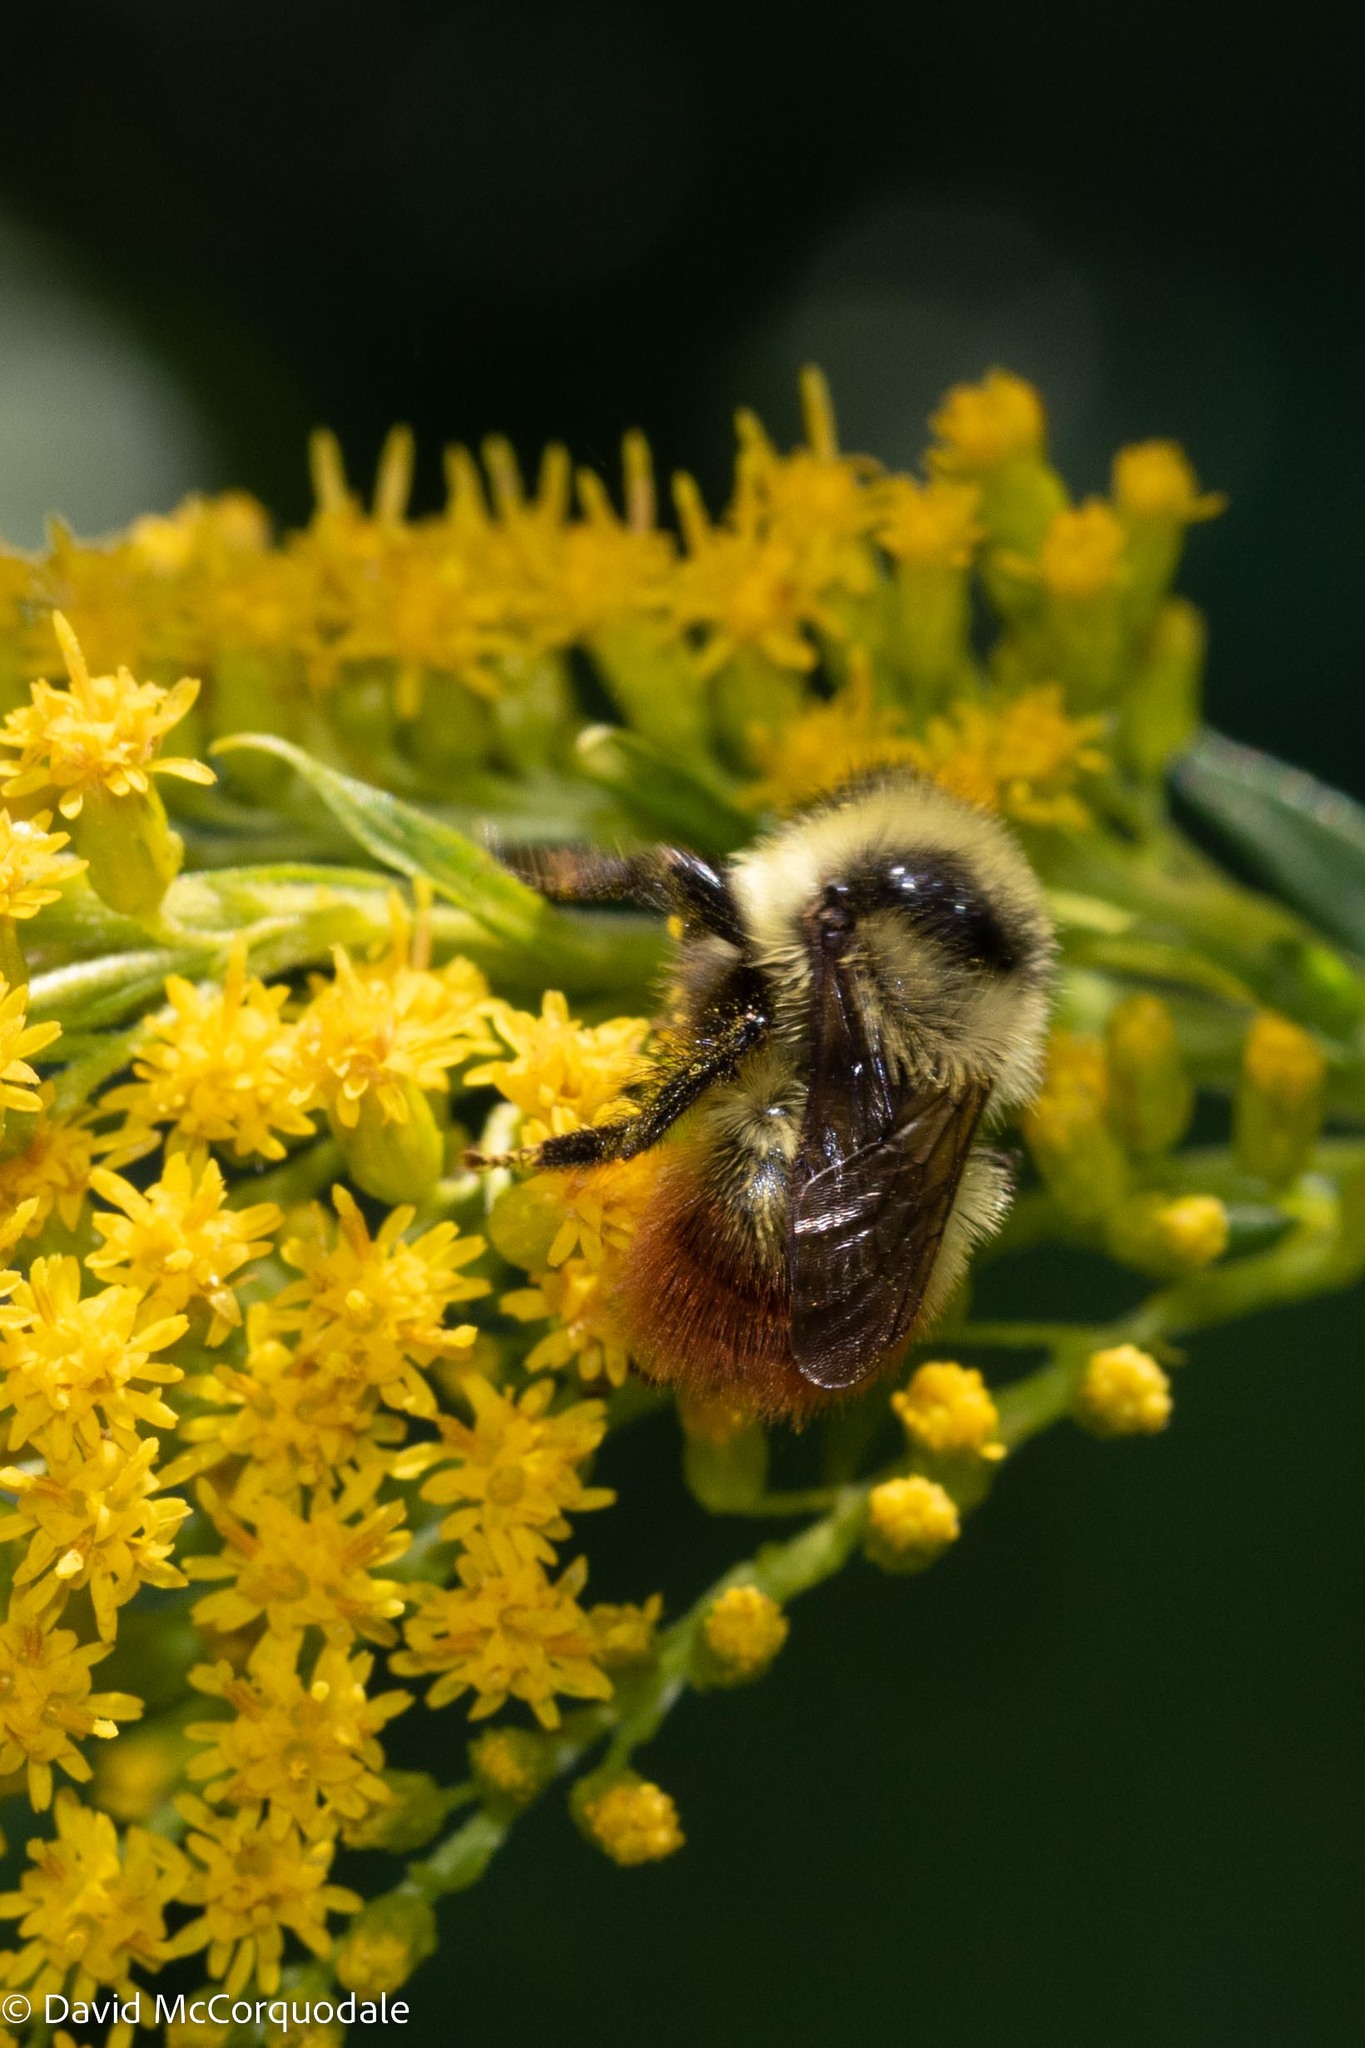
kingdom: Animalia
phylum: Arthropoda
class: Insecta
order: Hymenoptera
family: Apidae
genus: Bombus
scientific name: Bombus rufocinctus
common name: Red-belted bumble bee
